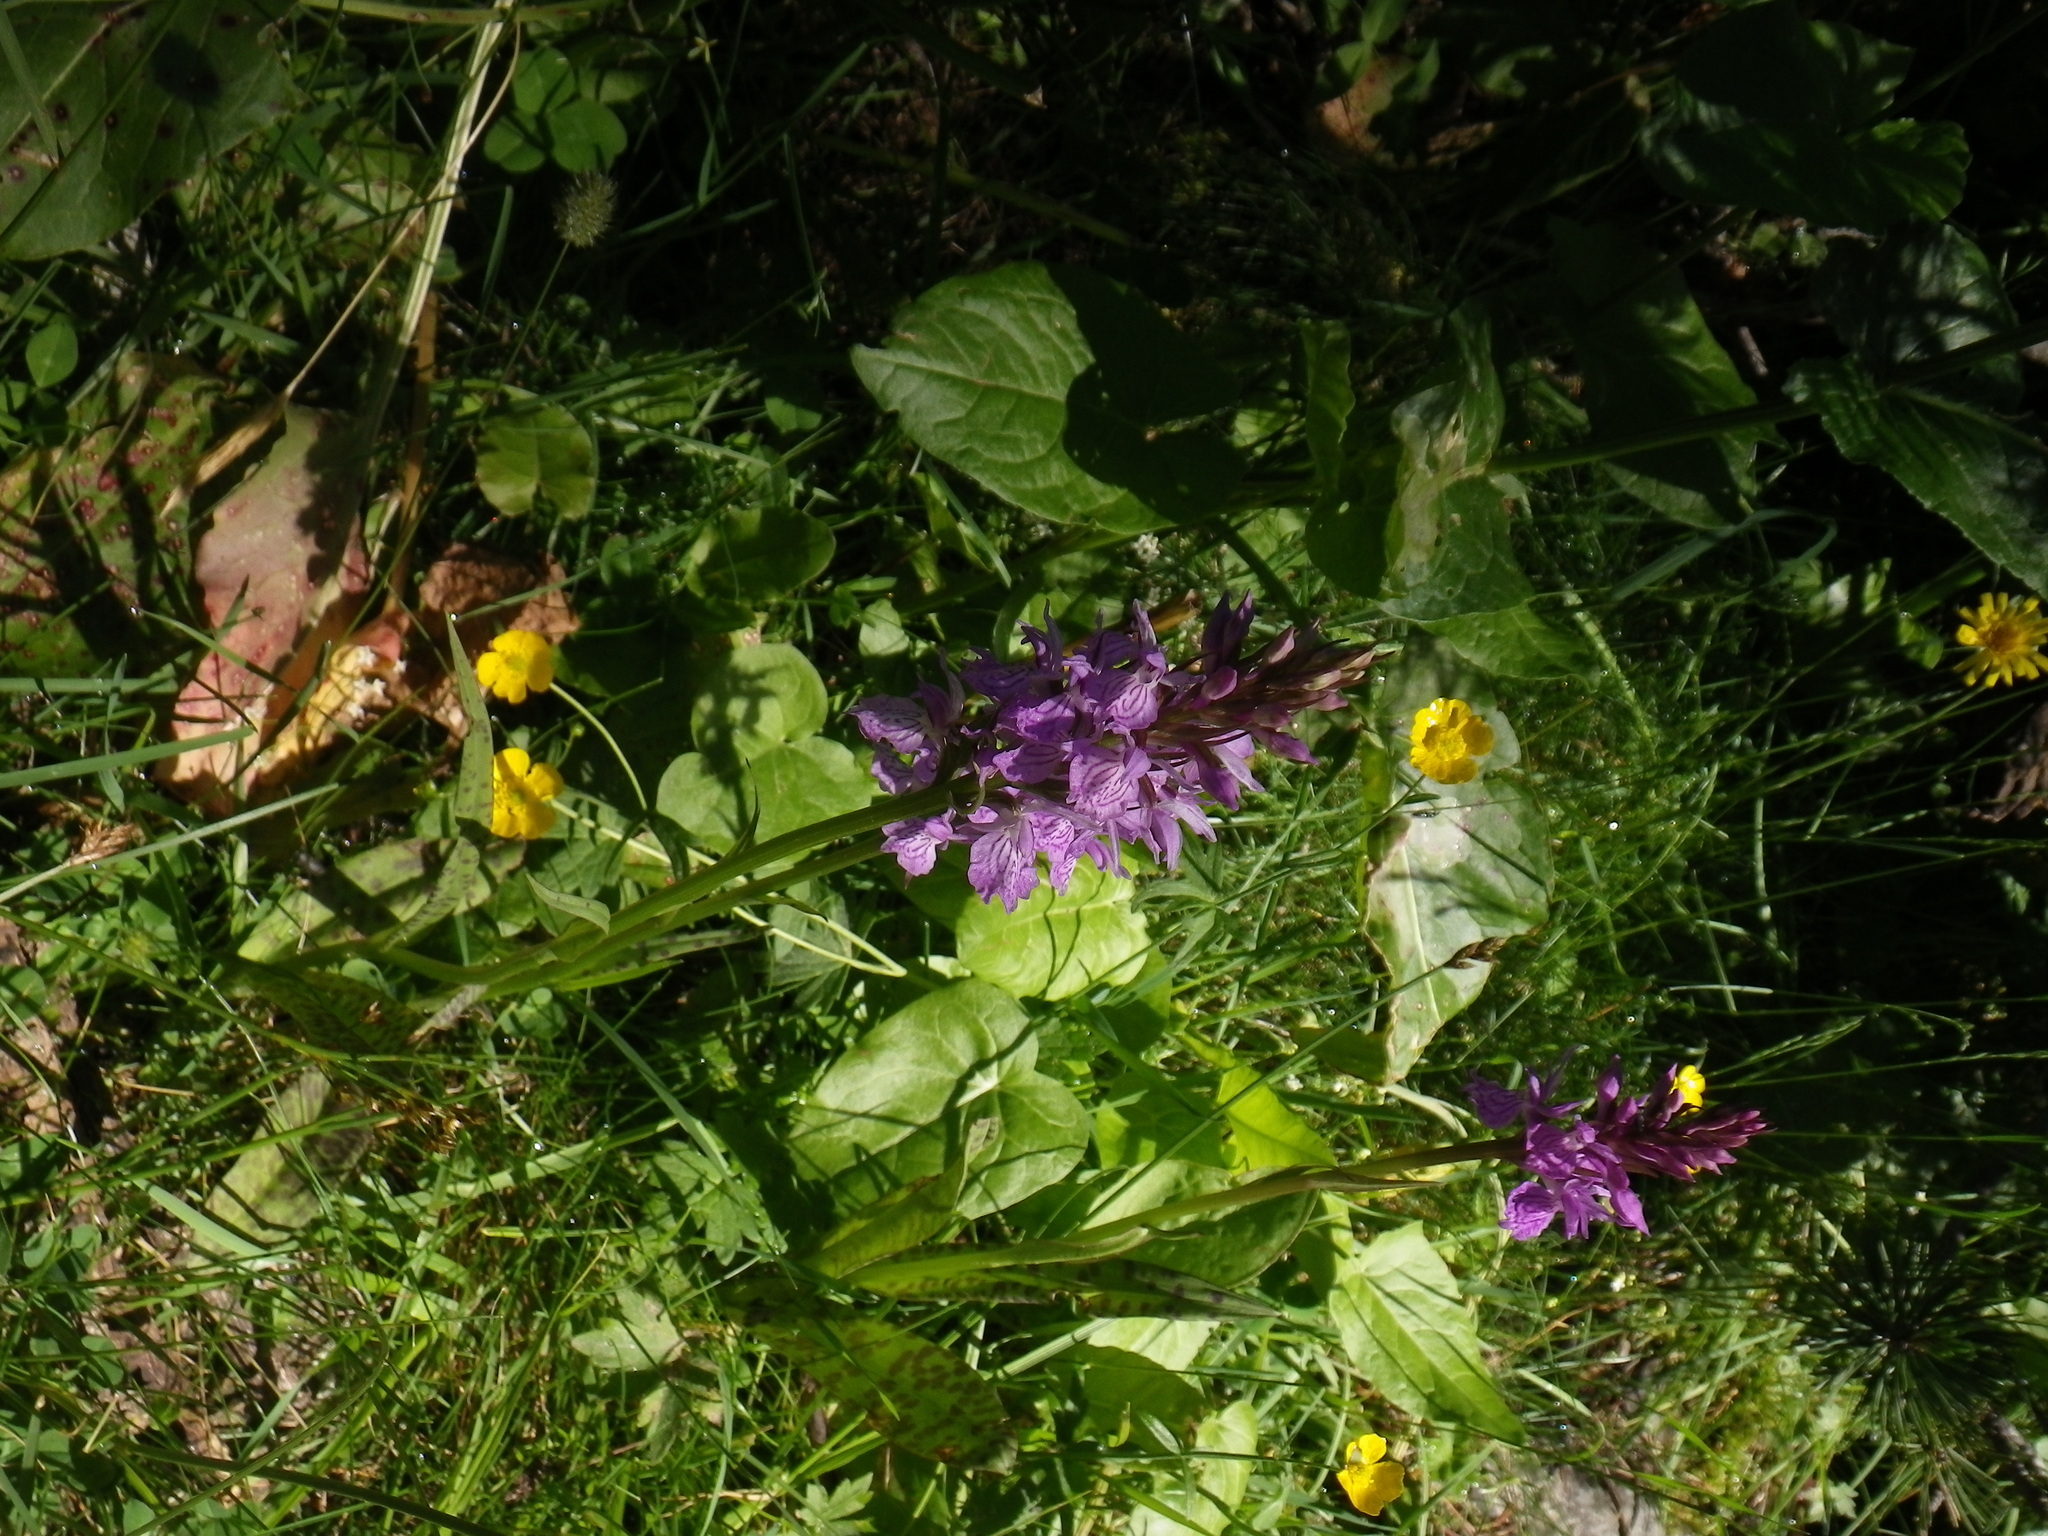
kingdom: Plantae
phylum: Tracheophyta
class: Liliopsida
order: Asparagales
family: Orchidaceae
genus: Dactylorhiza
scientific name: Dactylorhiza maculata
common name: Heath spotted-orchid
